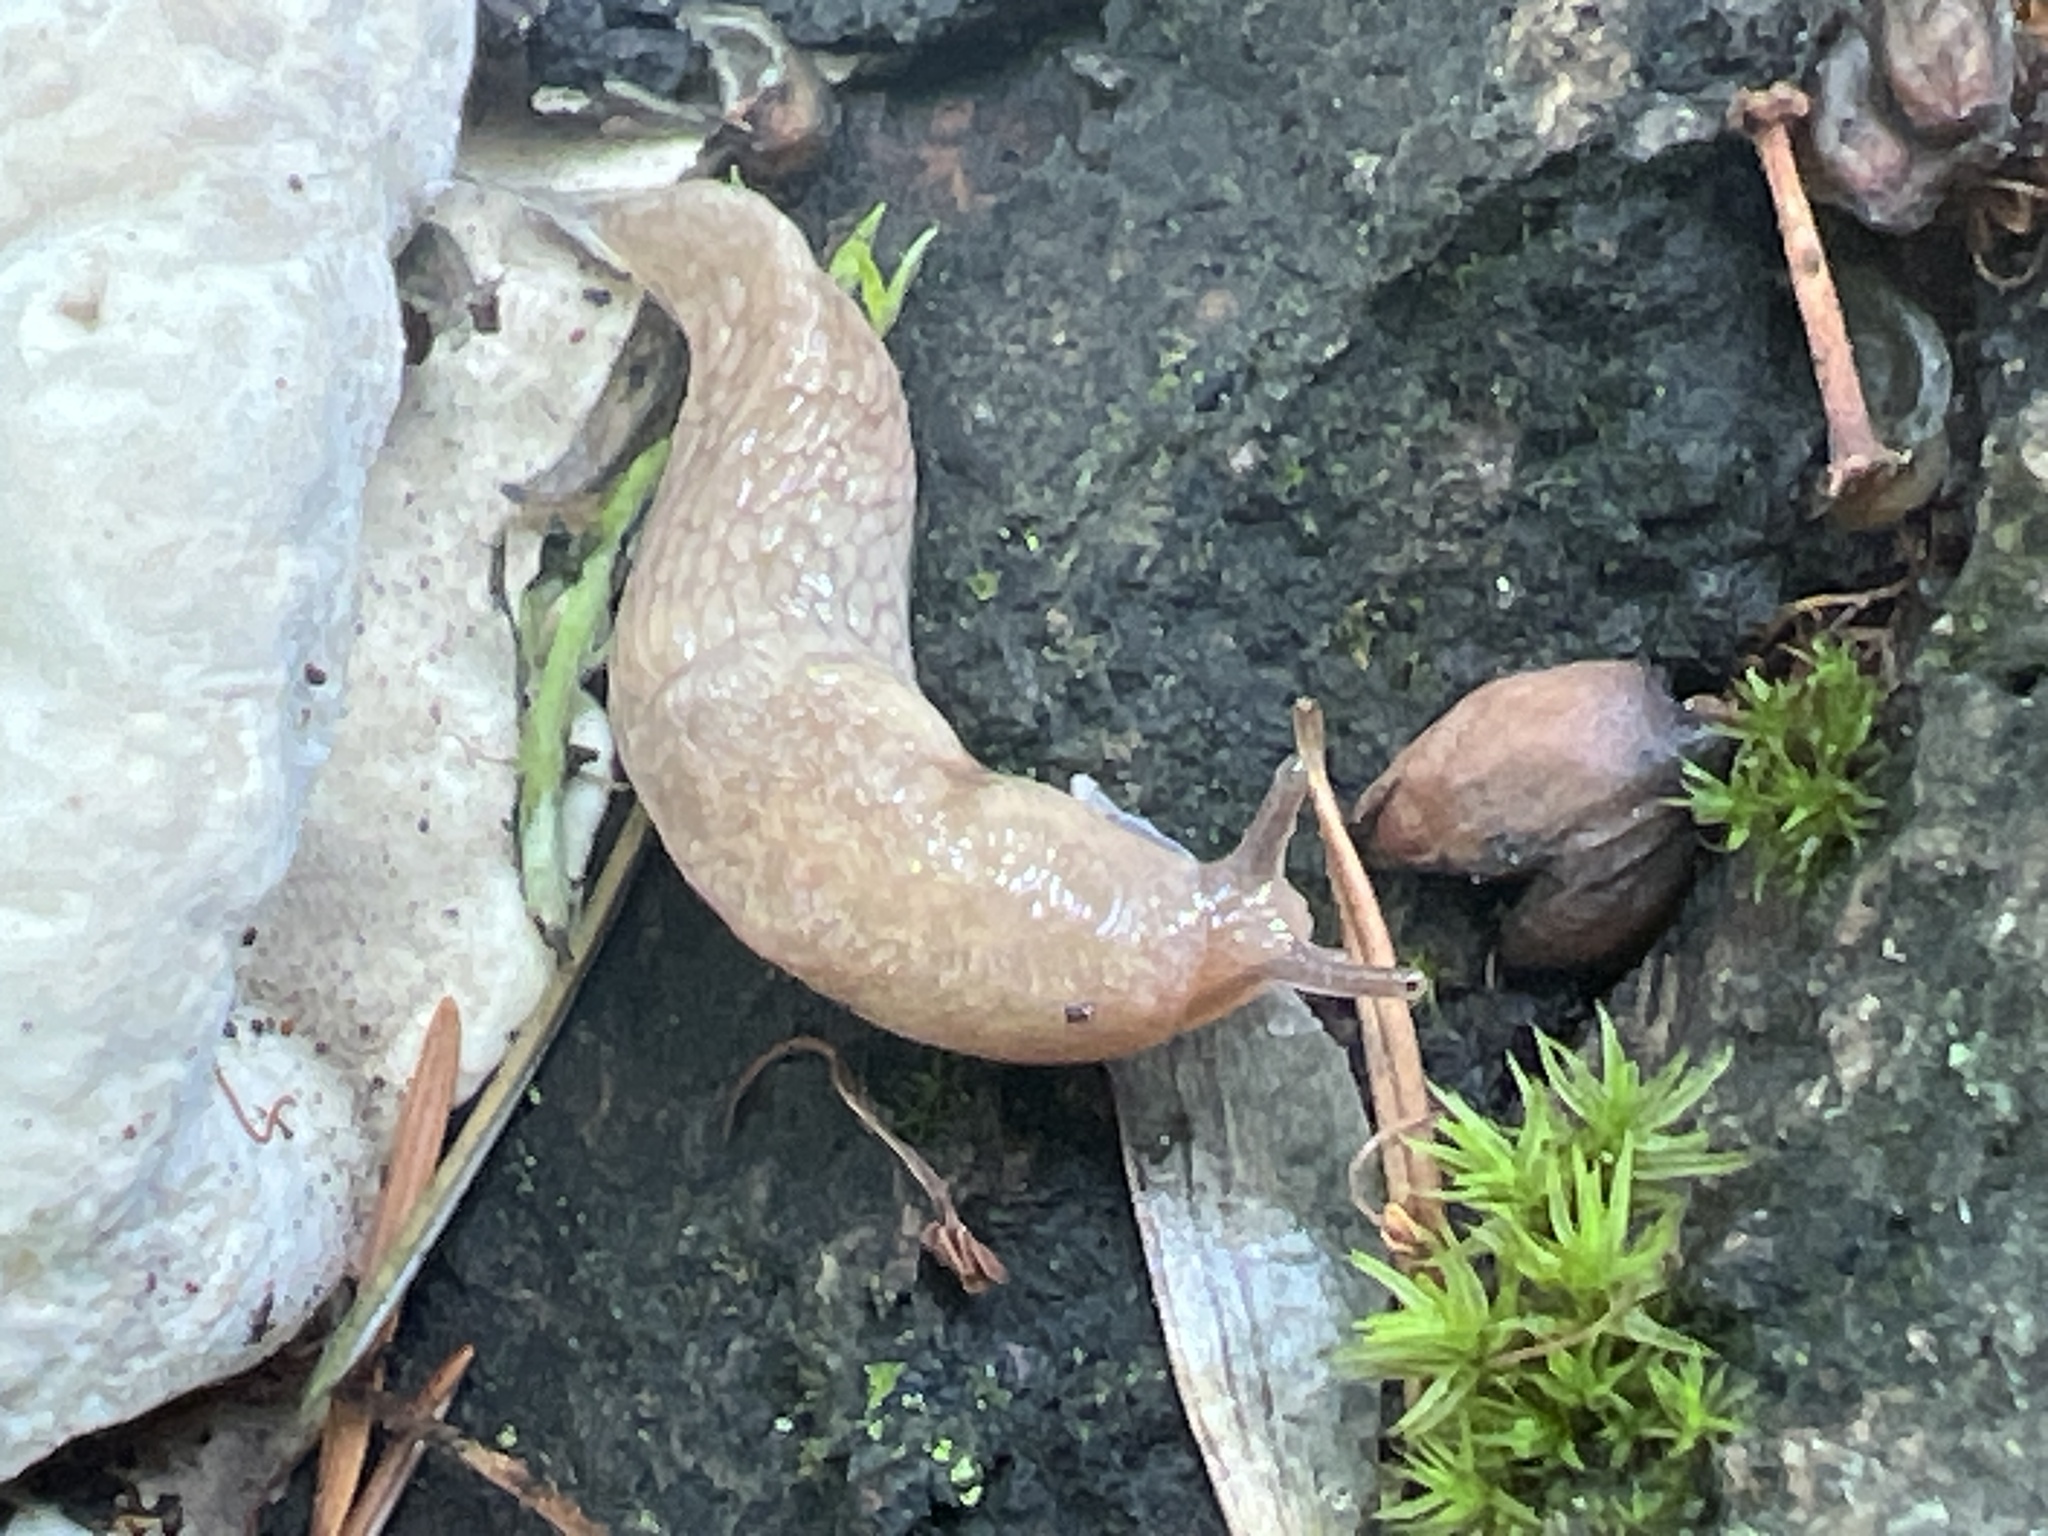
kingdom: Animalia
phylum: Mollusca
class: Gastropoda
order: Stylommatophora
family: Agriolimacidae
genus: Deroceras
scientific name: Deroceras reticulatum
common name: Gray field slug
